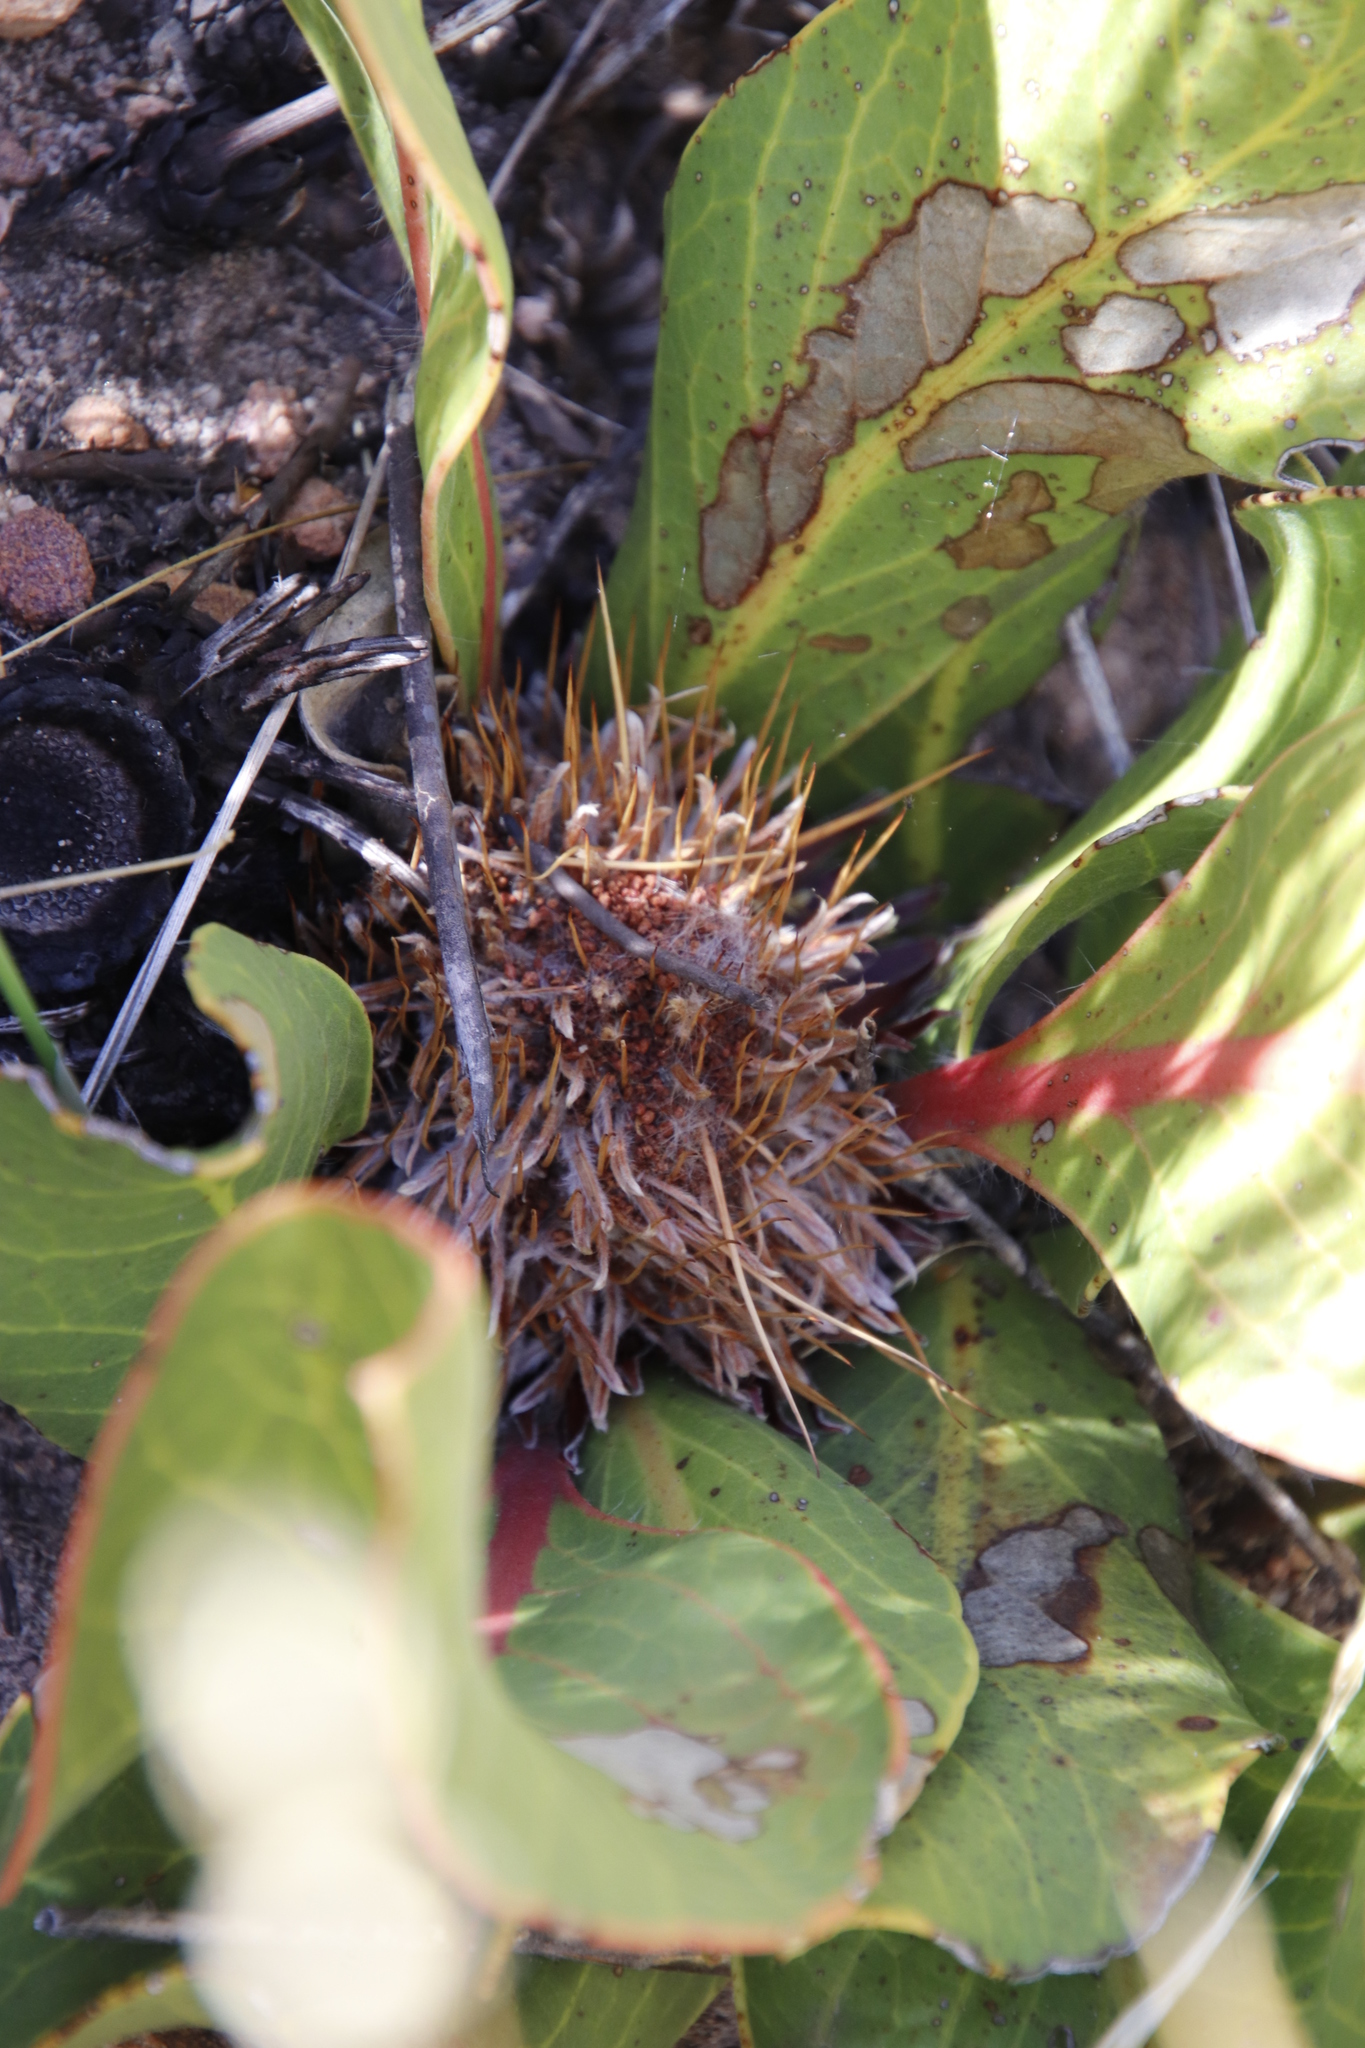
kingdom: Plantae
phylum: Tracheophyta
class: Magnoliopsida
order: Proteales
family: Proteaceae
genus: Protea
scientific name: Protea scolopendriifolia
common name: Harts-tongue-fern sugarbush
